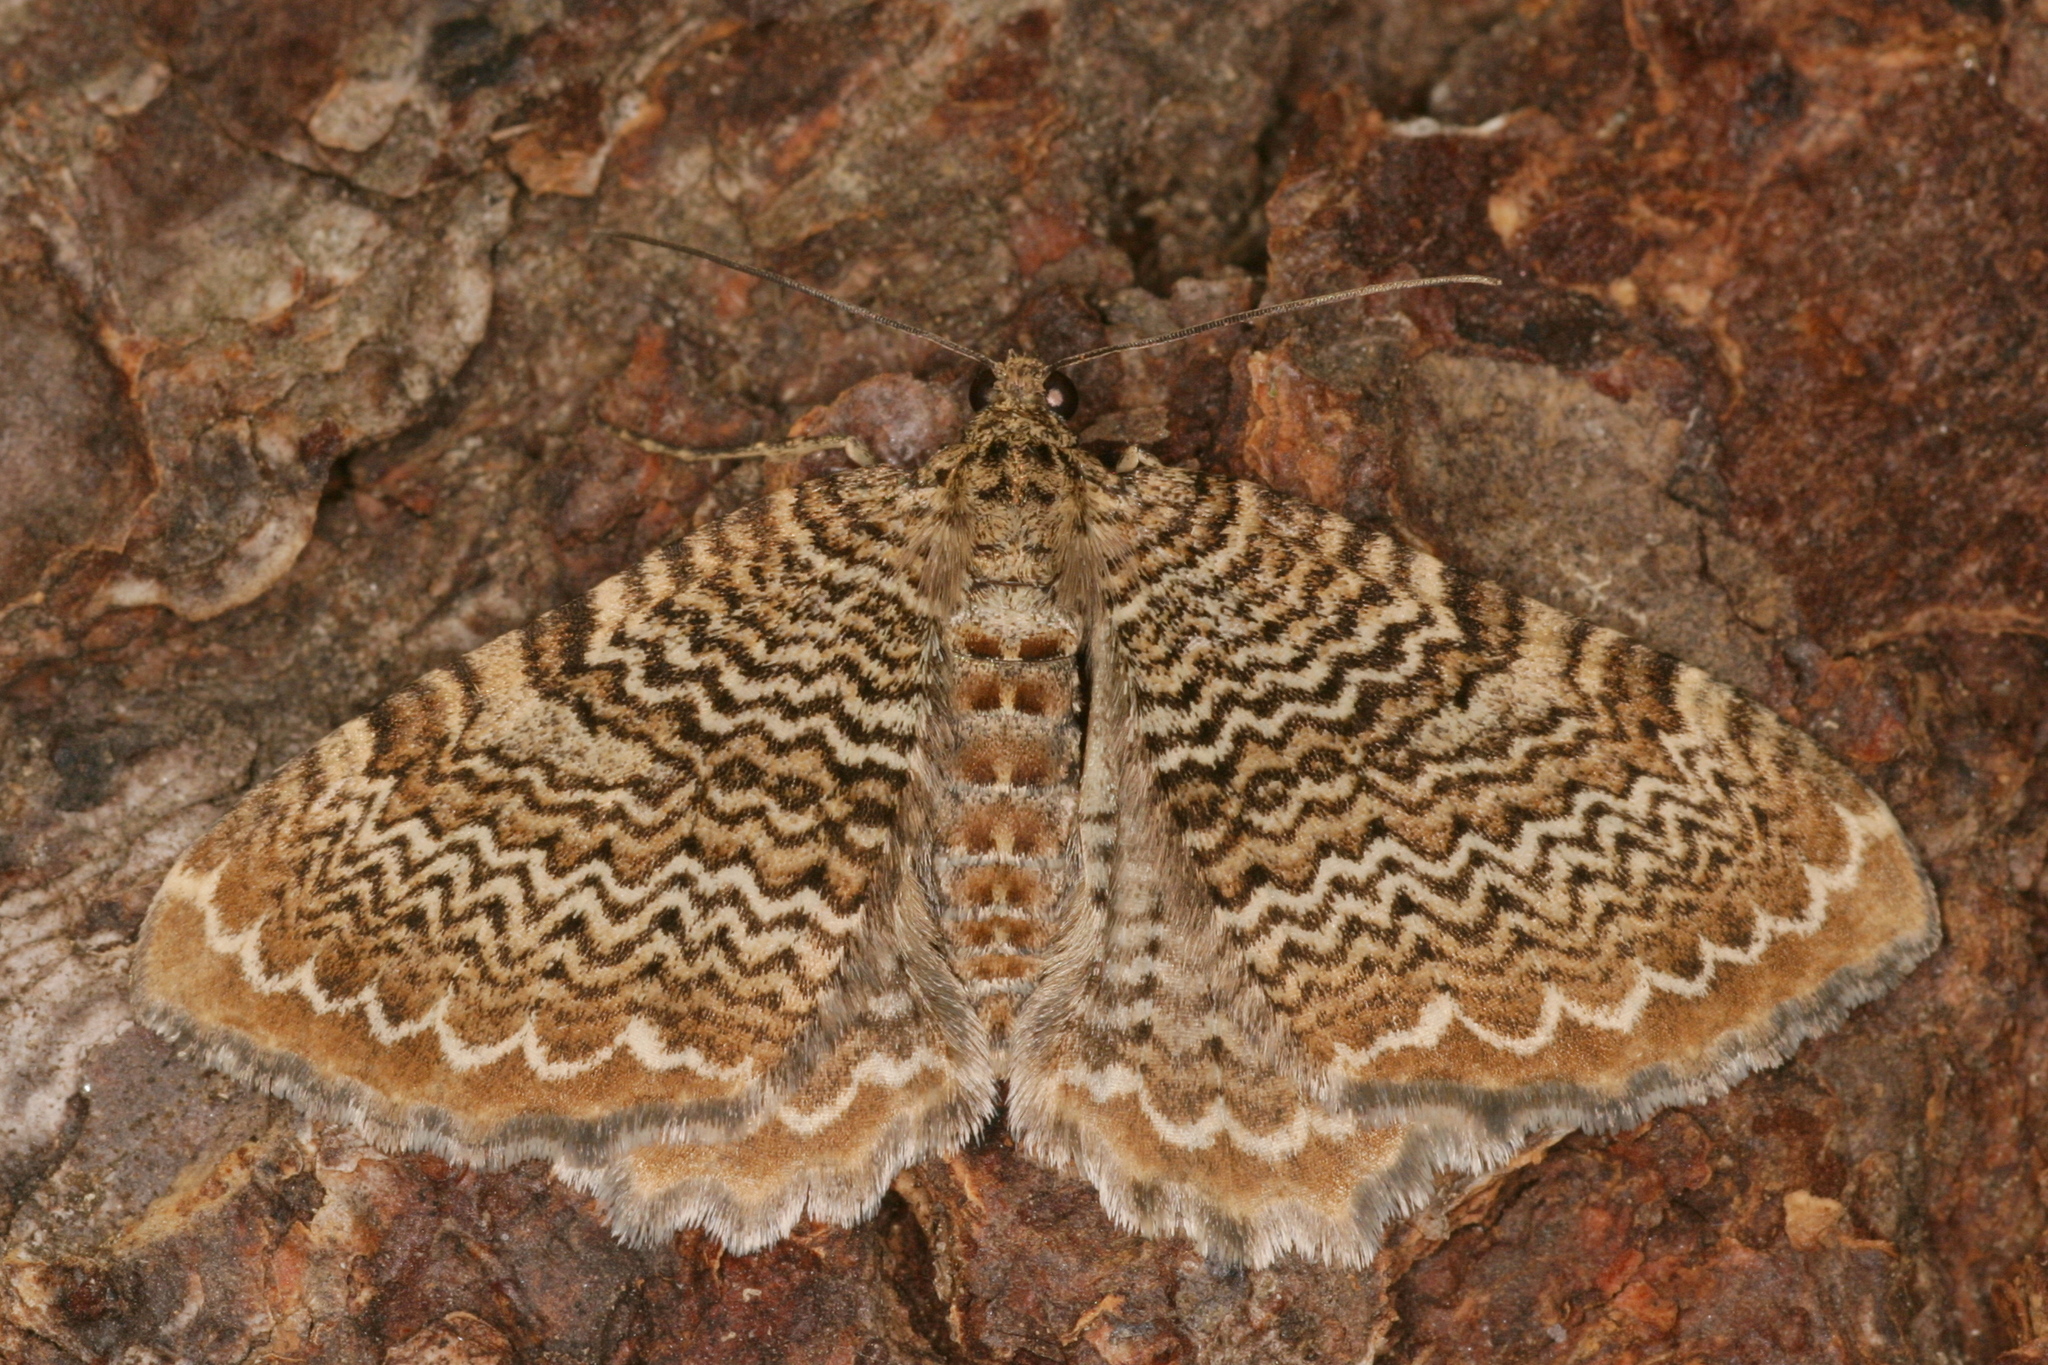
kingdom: Animalia
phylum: Arthropoda
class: Insecta
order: Lepidoptera
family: Geometridae
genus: Rheumaptera
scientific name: Rheumaptera undulata
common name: Scallop shell
